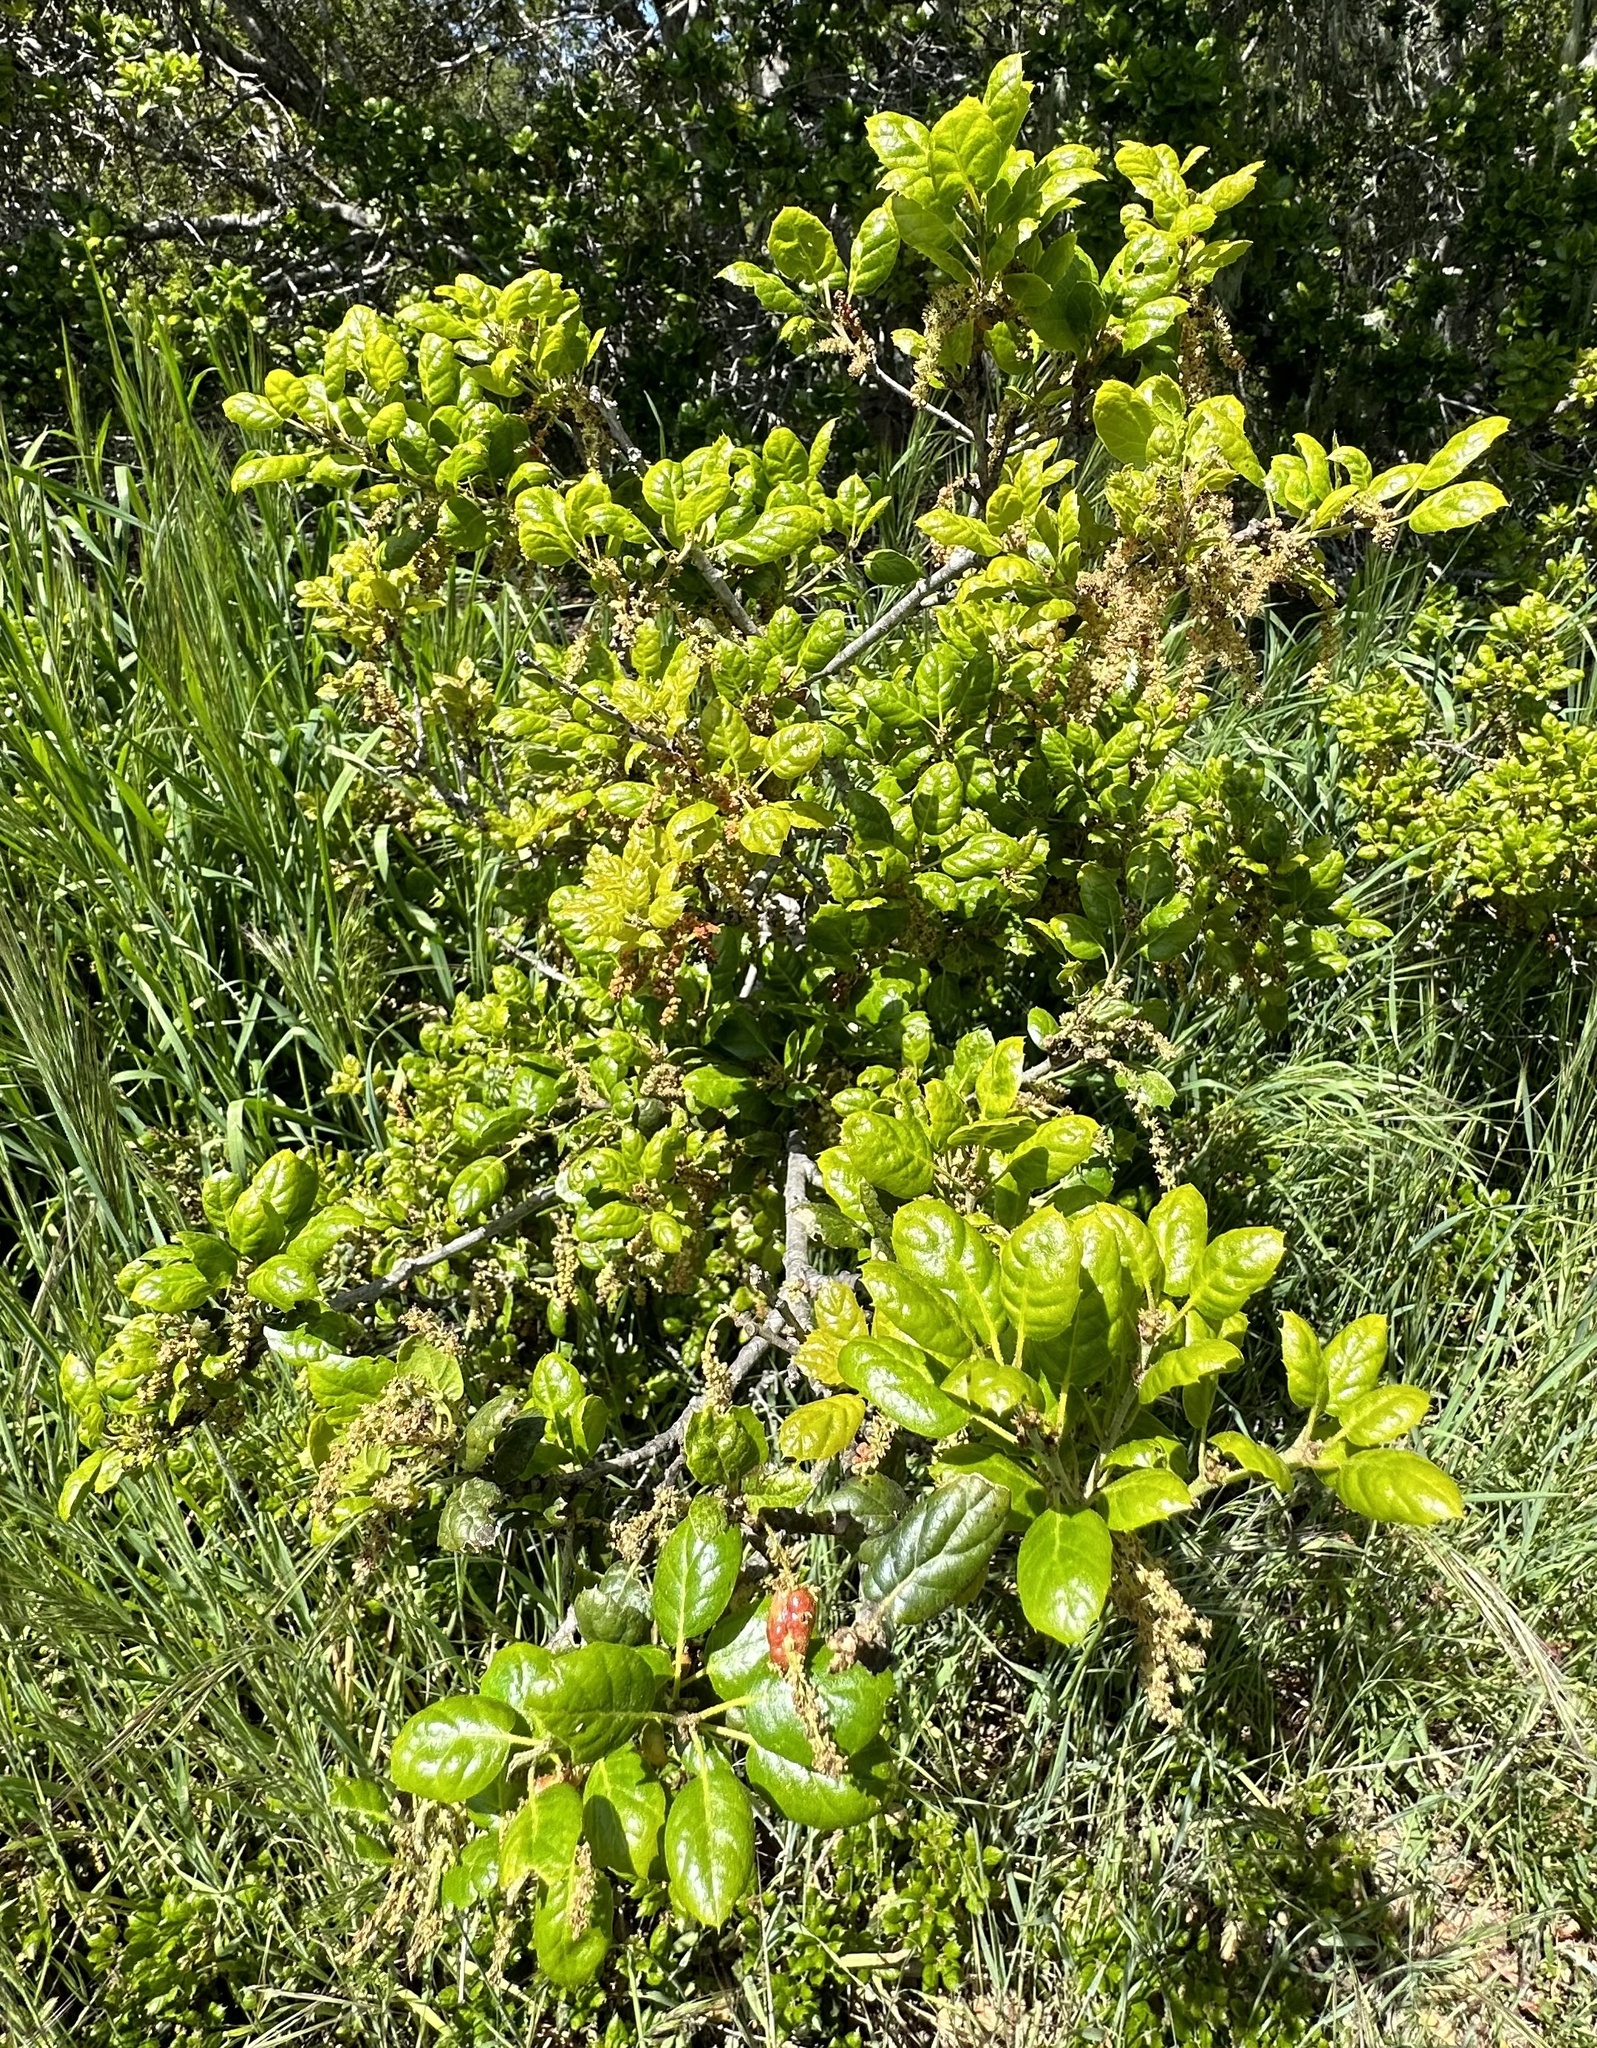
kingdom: Animalia
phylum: Arthropoda
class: Insecta
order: Hymenoptera
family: Cynipidae
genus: Callirhytis
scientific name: Callirhytis
